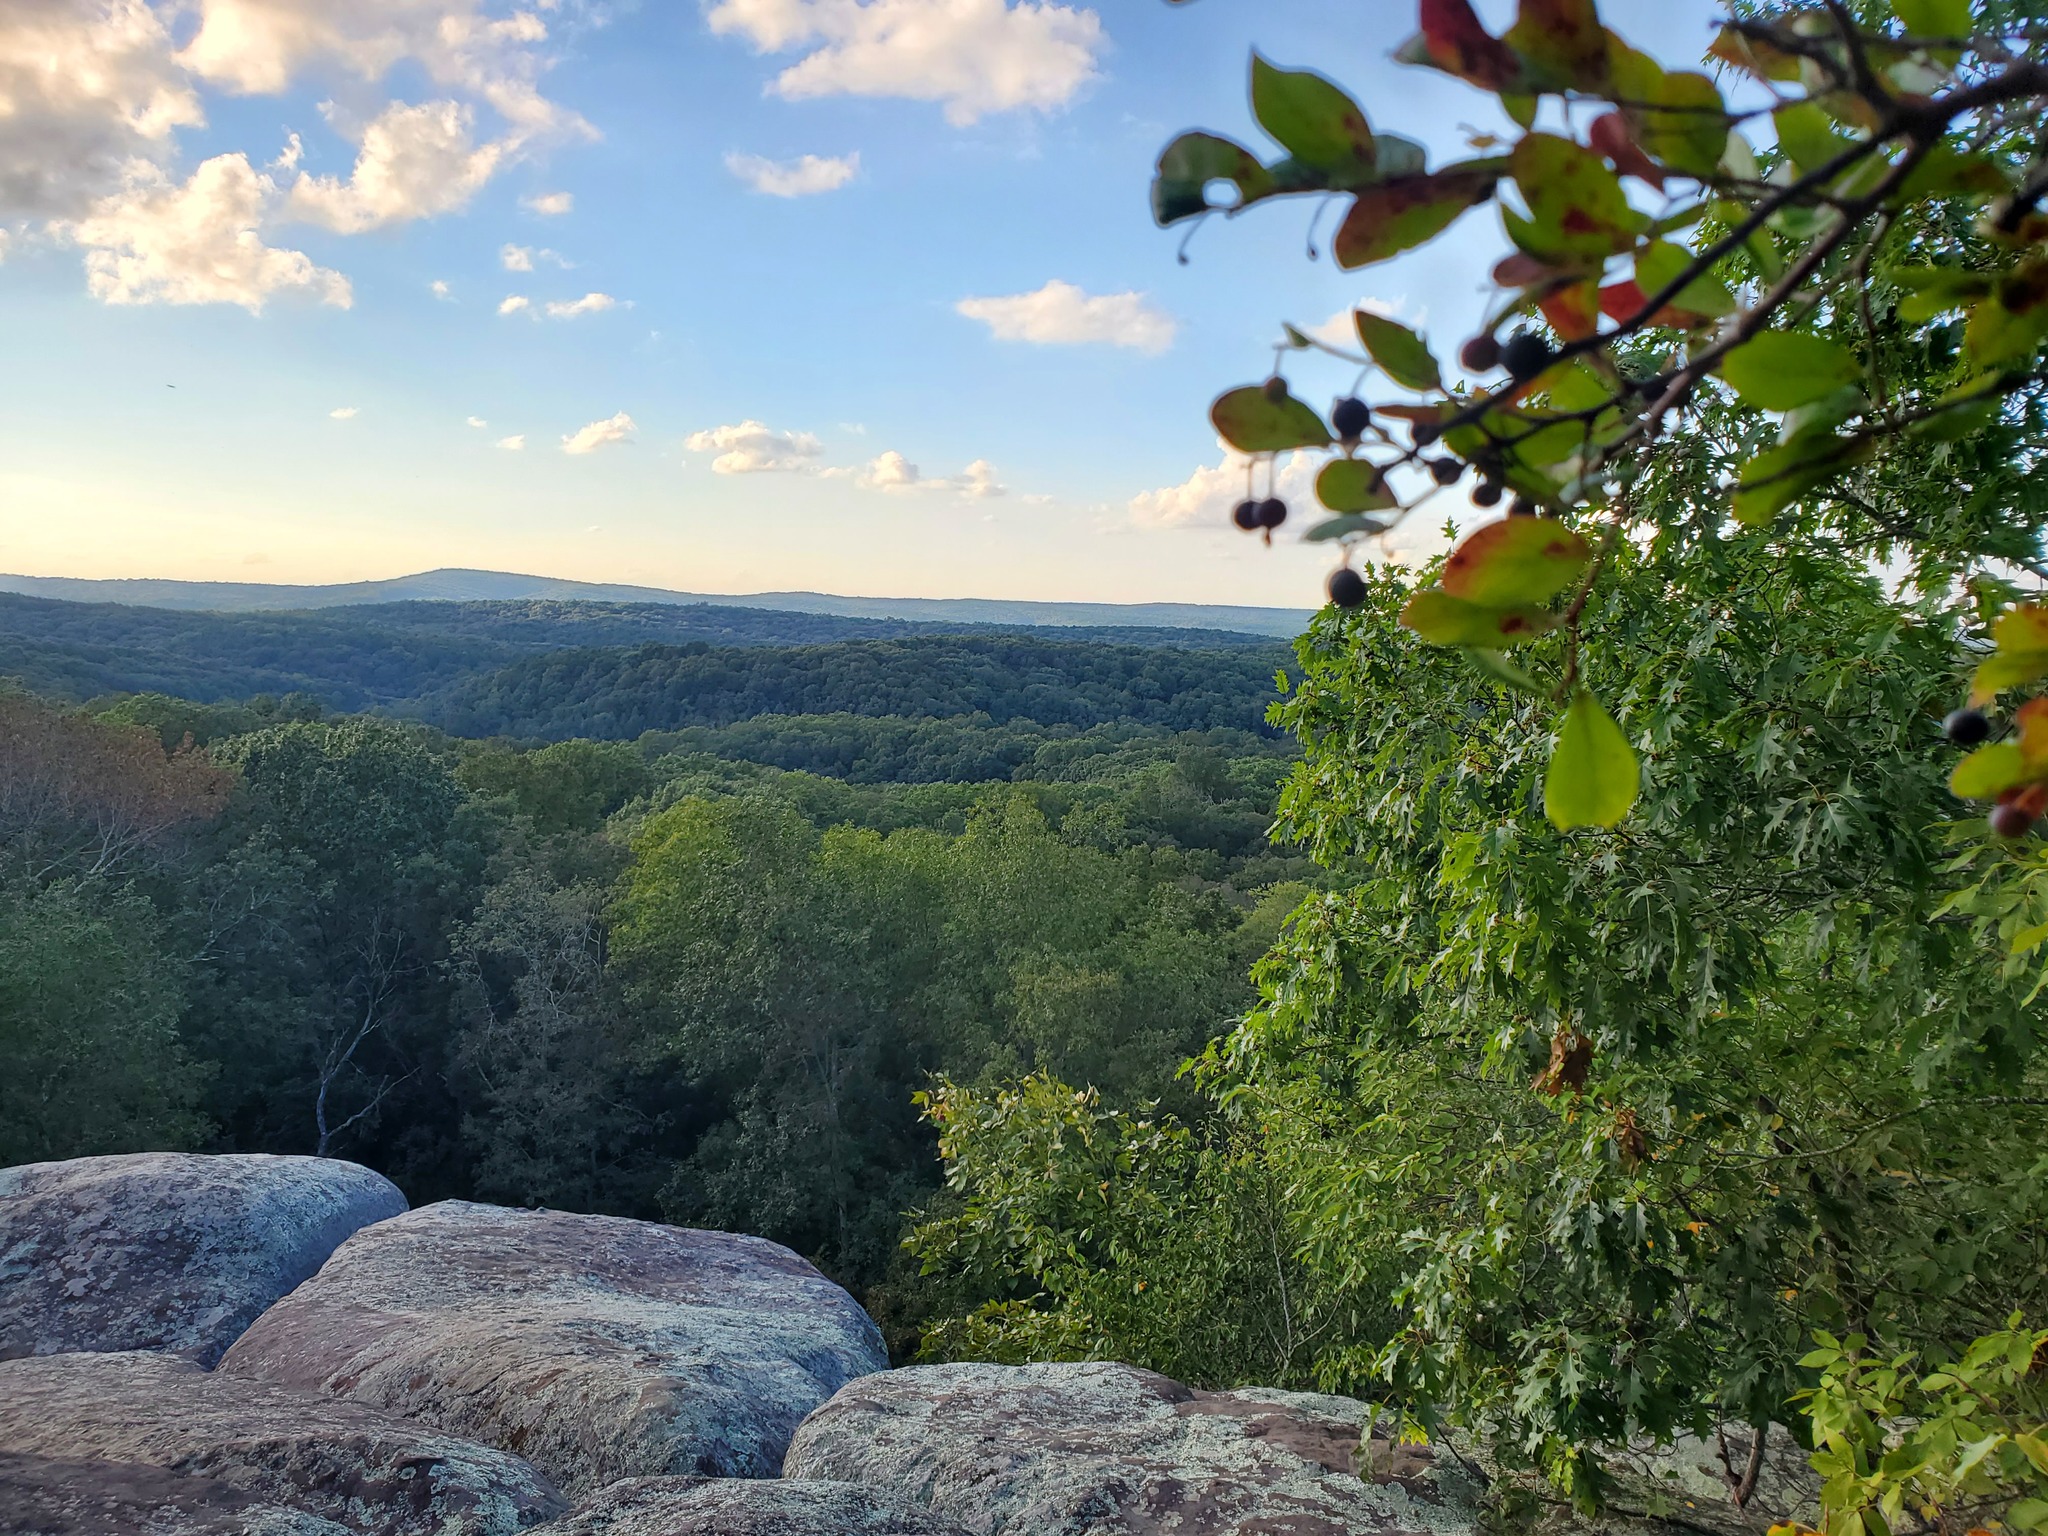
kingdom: Plantae
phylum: Tracheophyta
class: Magnoliopsida
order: Ericales
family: Ericaceae
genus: Vaccinium
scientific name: Vaccinium arboreum
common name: Farkleberry
